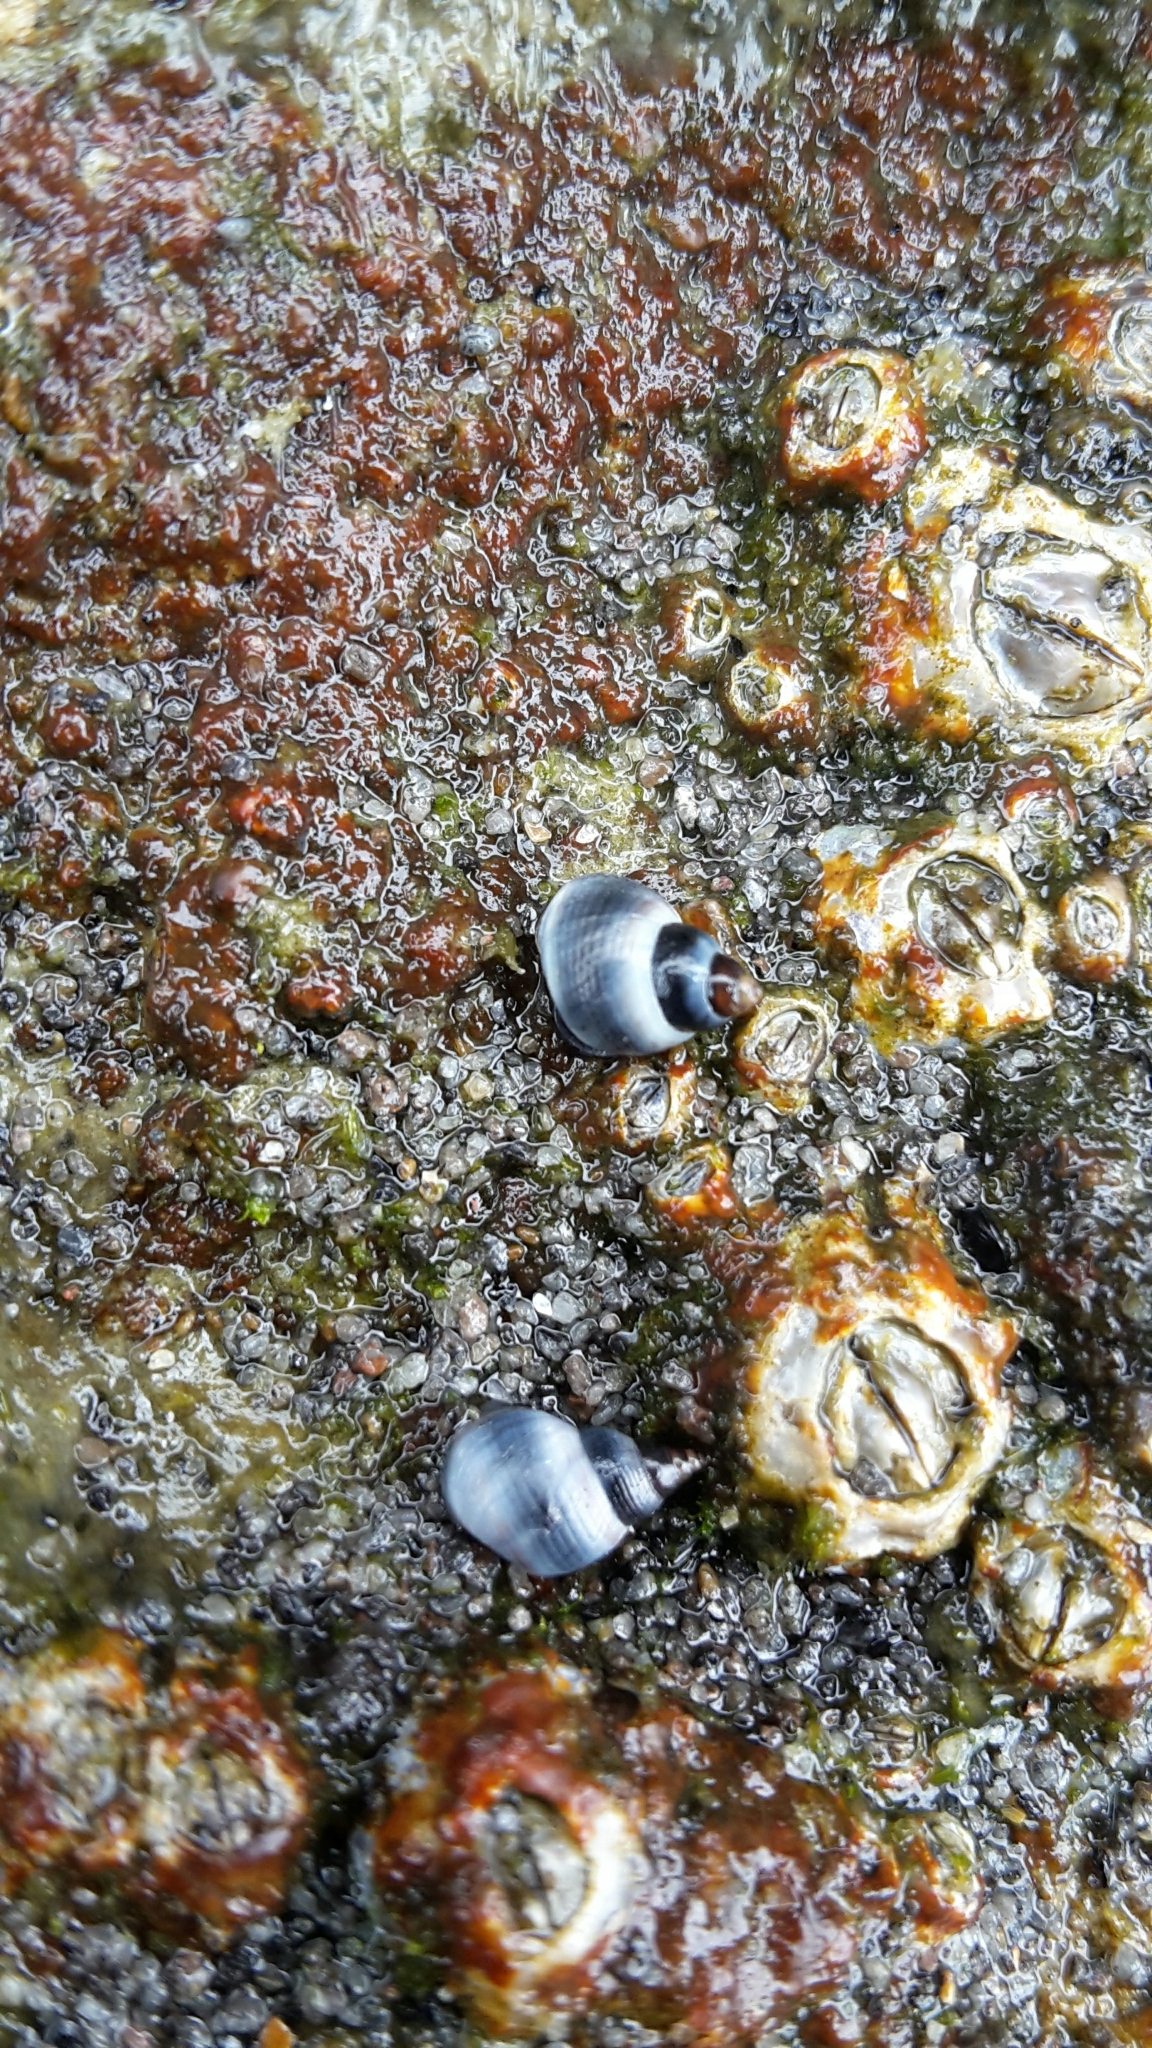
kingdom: Animalia
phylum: Mollusca
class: Gastropoda
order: Littorinimorpha
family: Littorinidae
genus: Austrolittorina
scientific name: Austrolittorina antipodum
